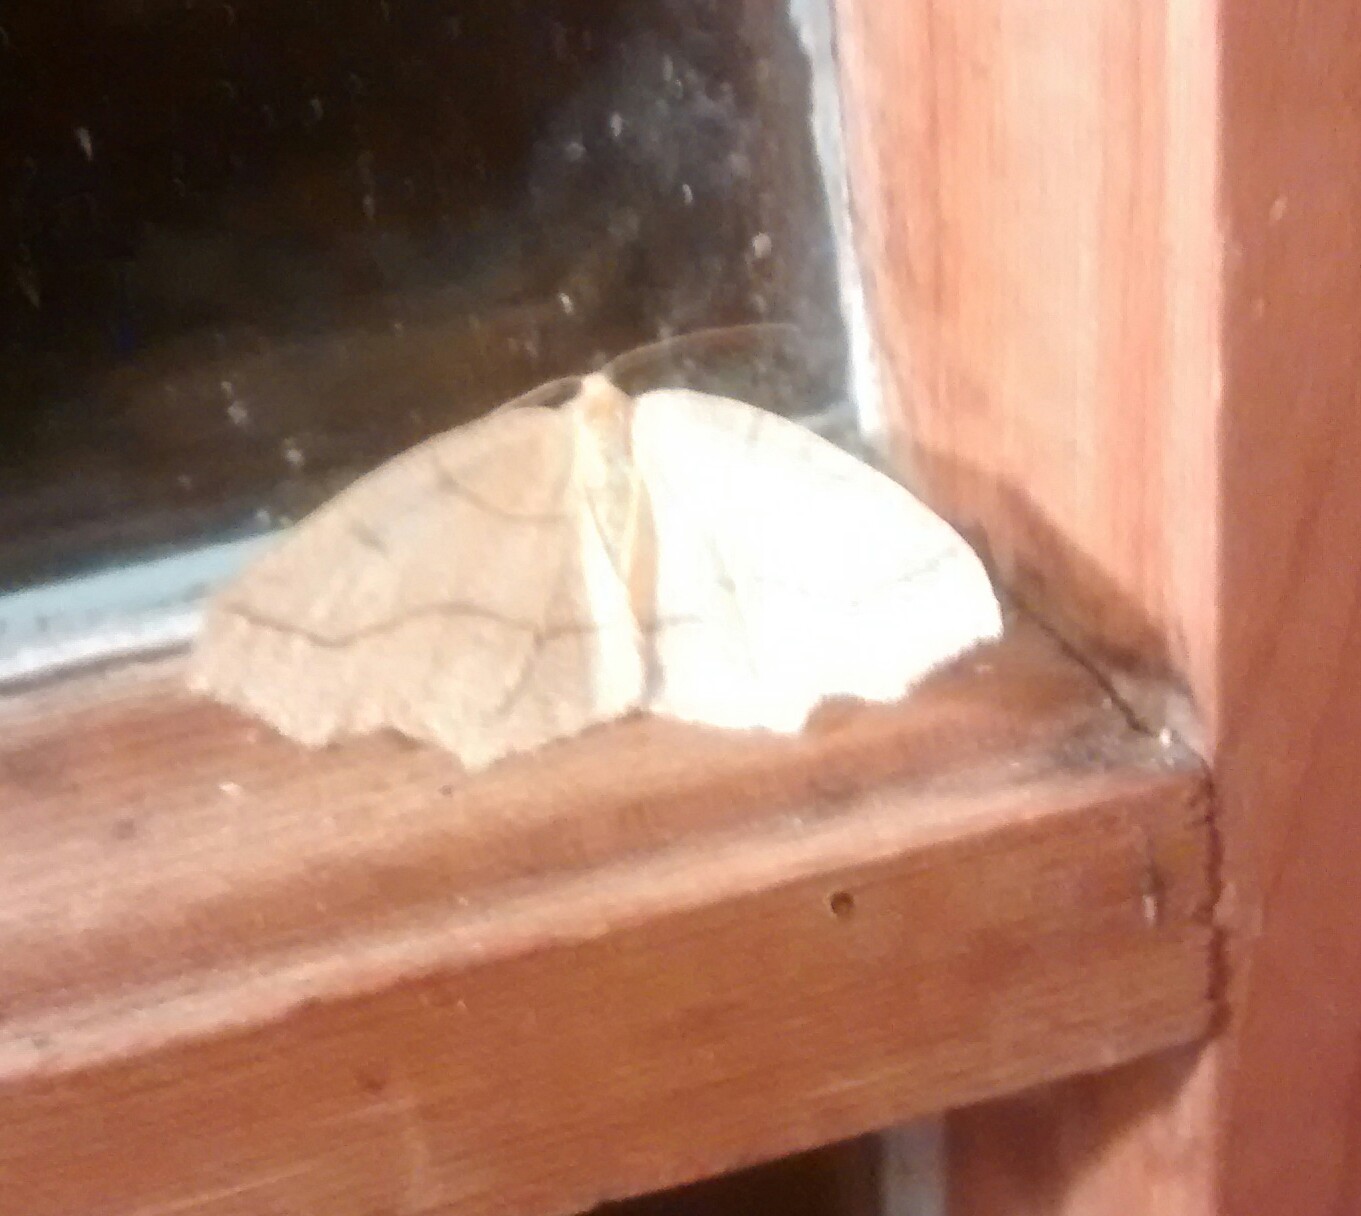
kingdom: Animalia
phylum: Arthropoda
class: Insecta
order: Lepidoptera
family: Geometridae
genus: Lambdina
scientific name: Lambdina fiscellaria
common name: Hemlock looper
